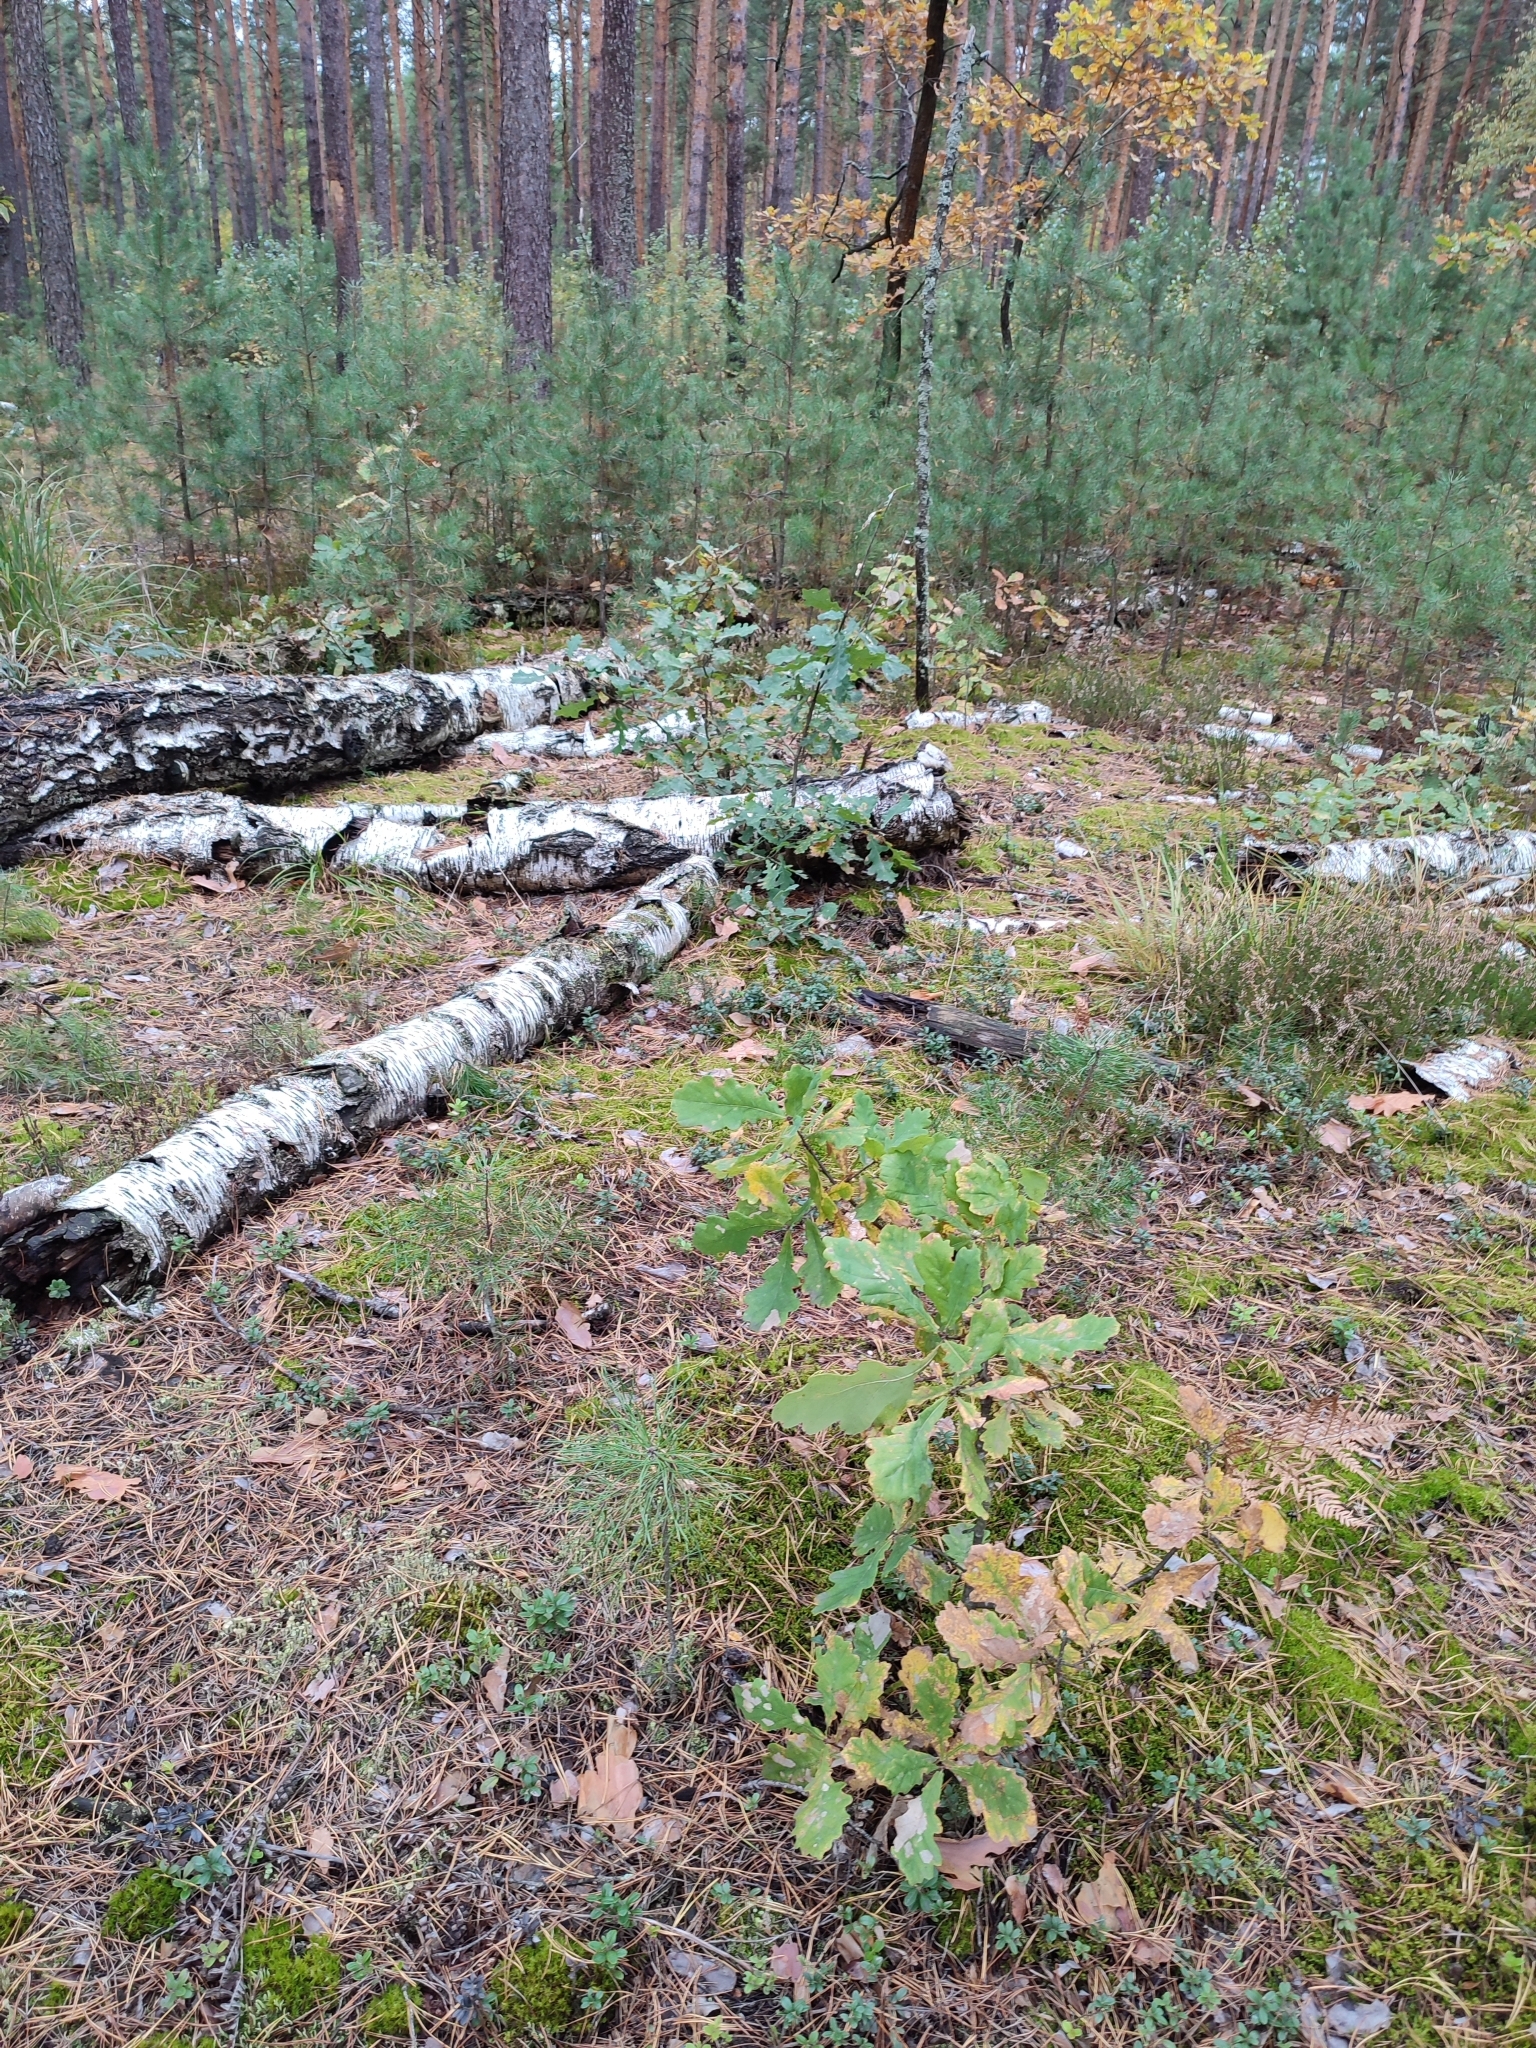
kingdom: Plantae
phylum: Tracheophyta
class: Magnoliopsida
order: Fagales
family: Fagaceae
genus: Quercus
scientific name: Quercus robur
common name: Pedunculate oak
